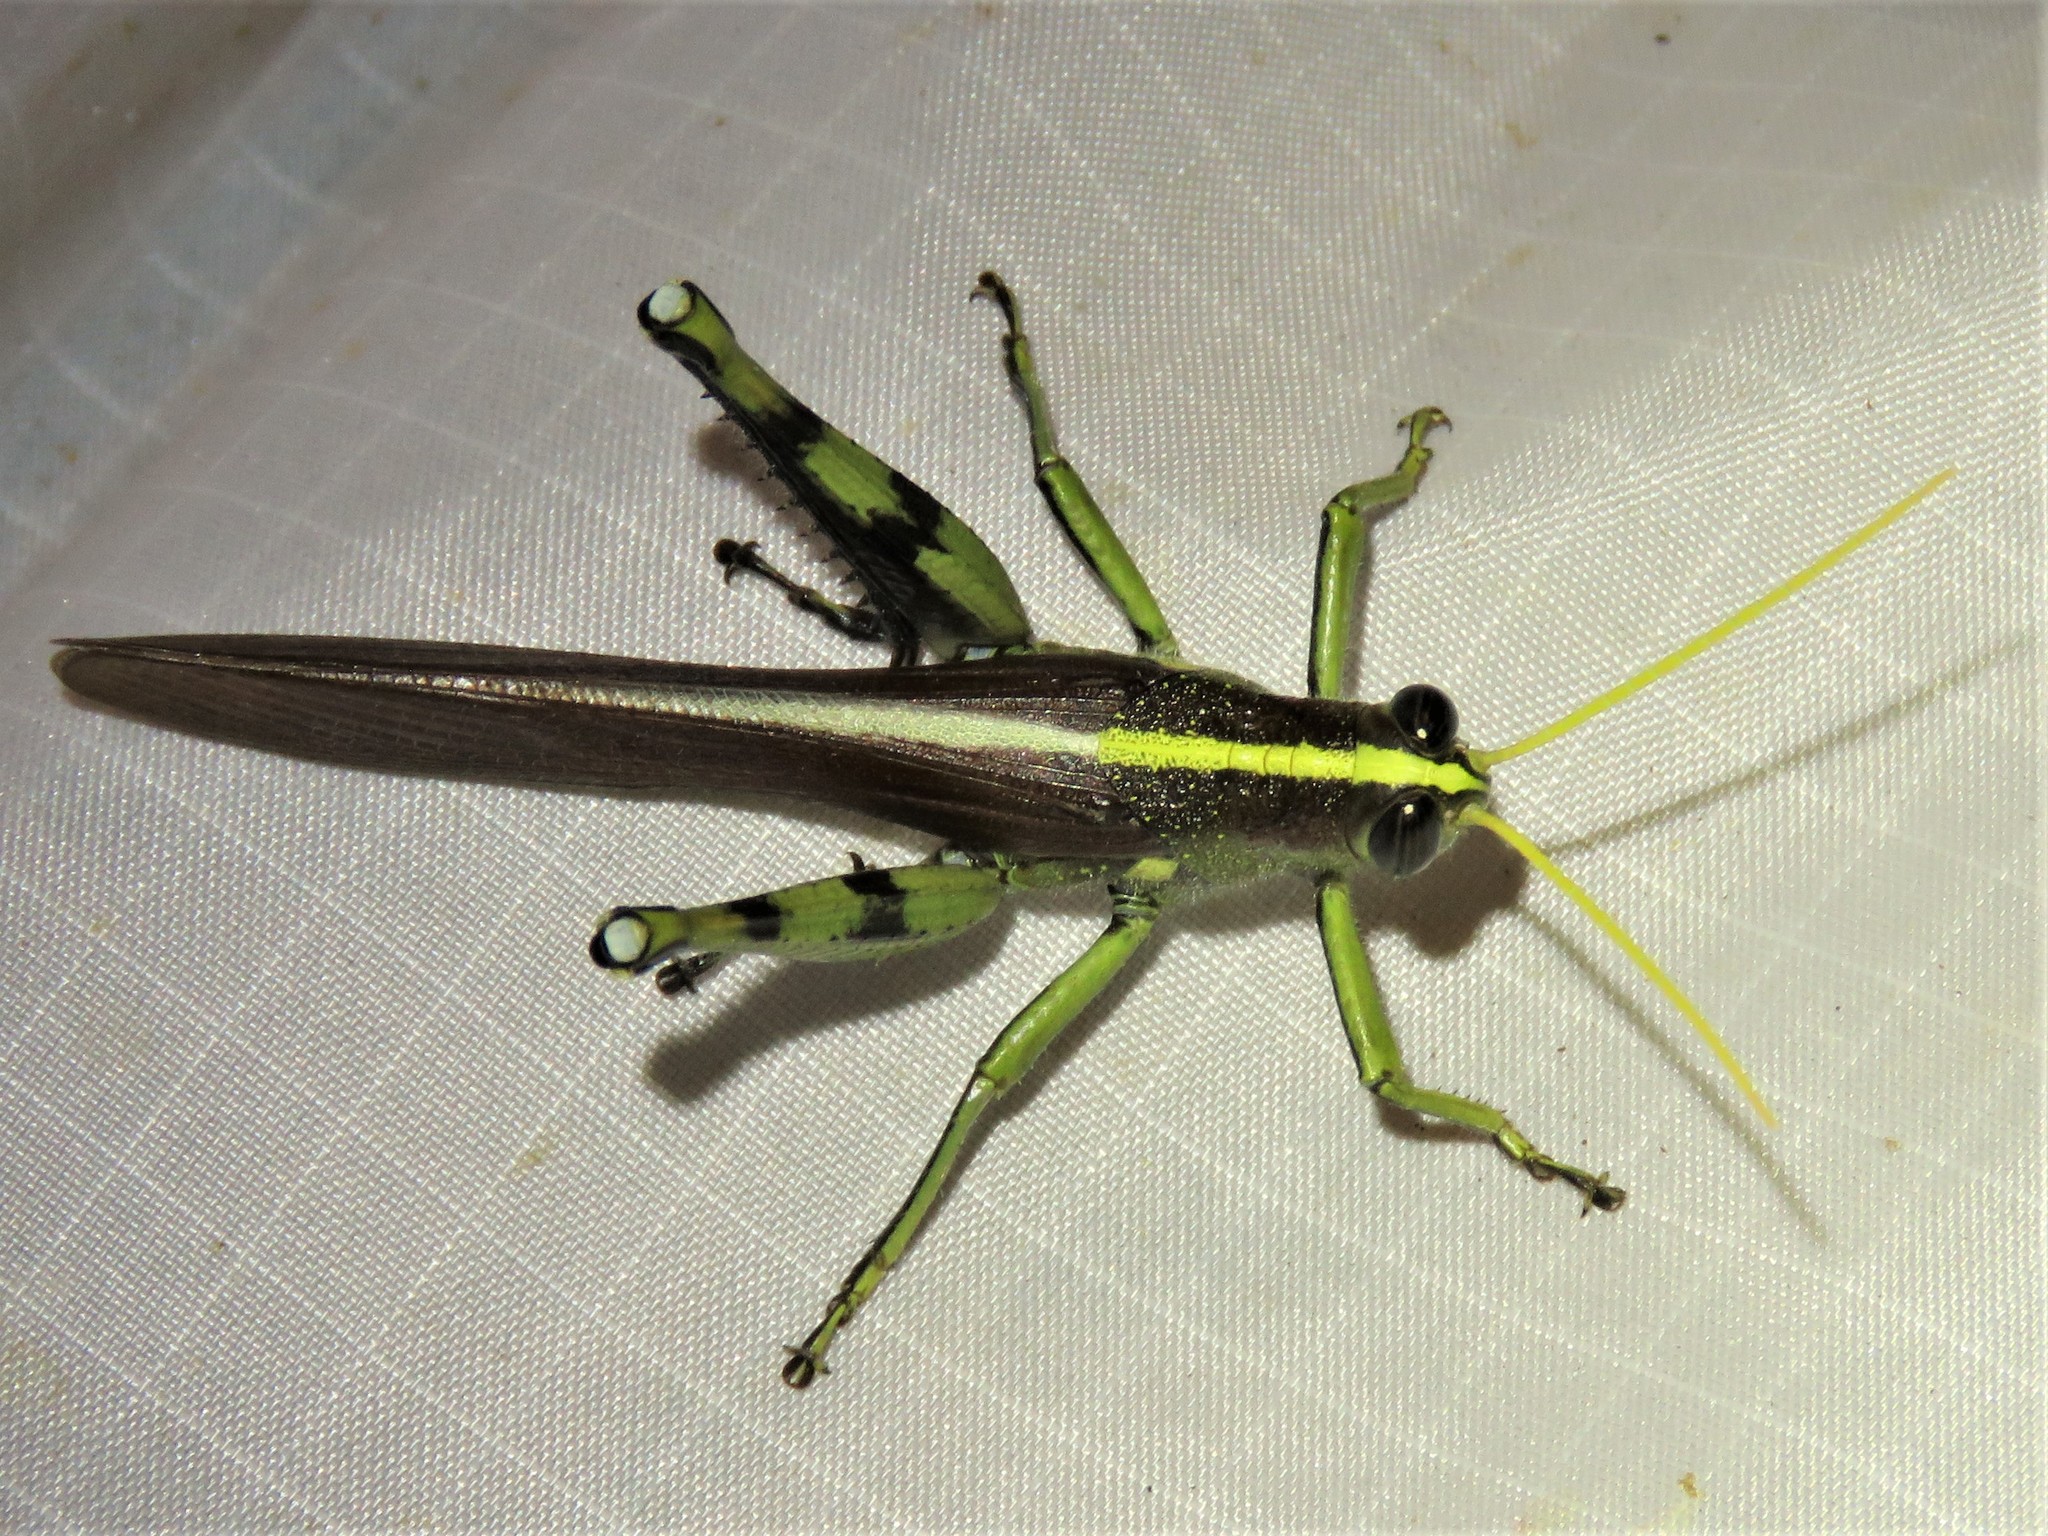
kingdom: Animalia
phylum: Arthropoda
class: Insecta
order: Orthoptera
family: Acrididae
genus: Schistocerca
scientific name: Schistocerca obscura
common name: Obscure bird grasshopper
